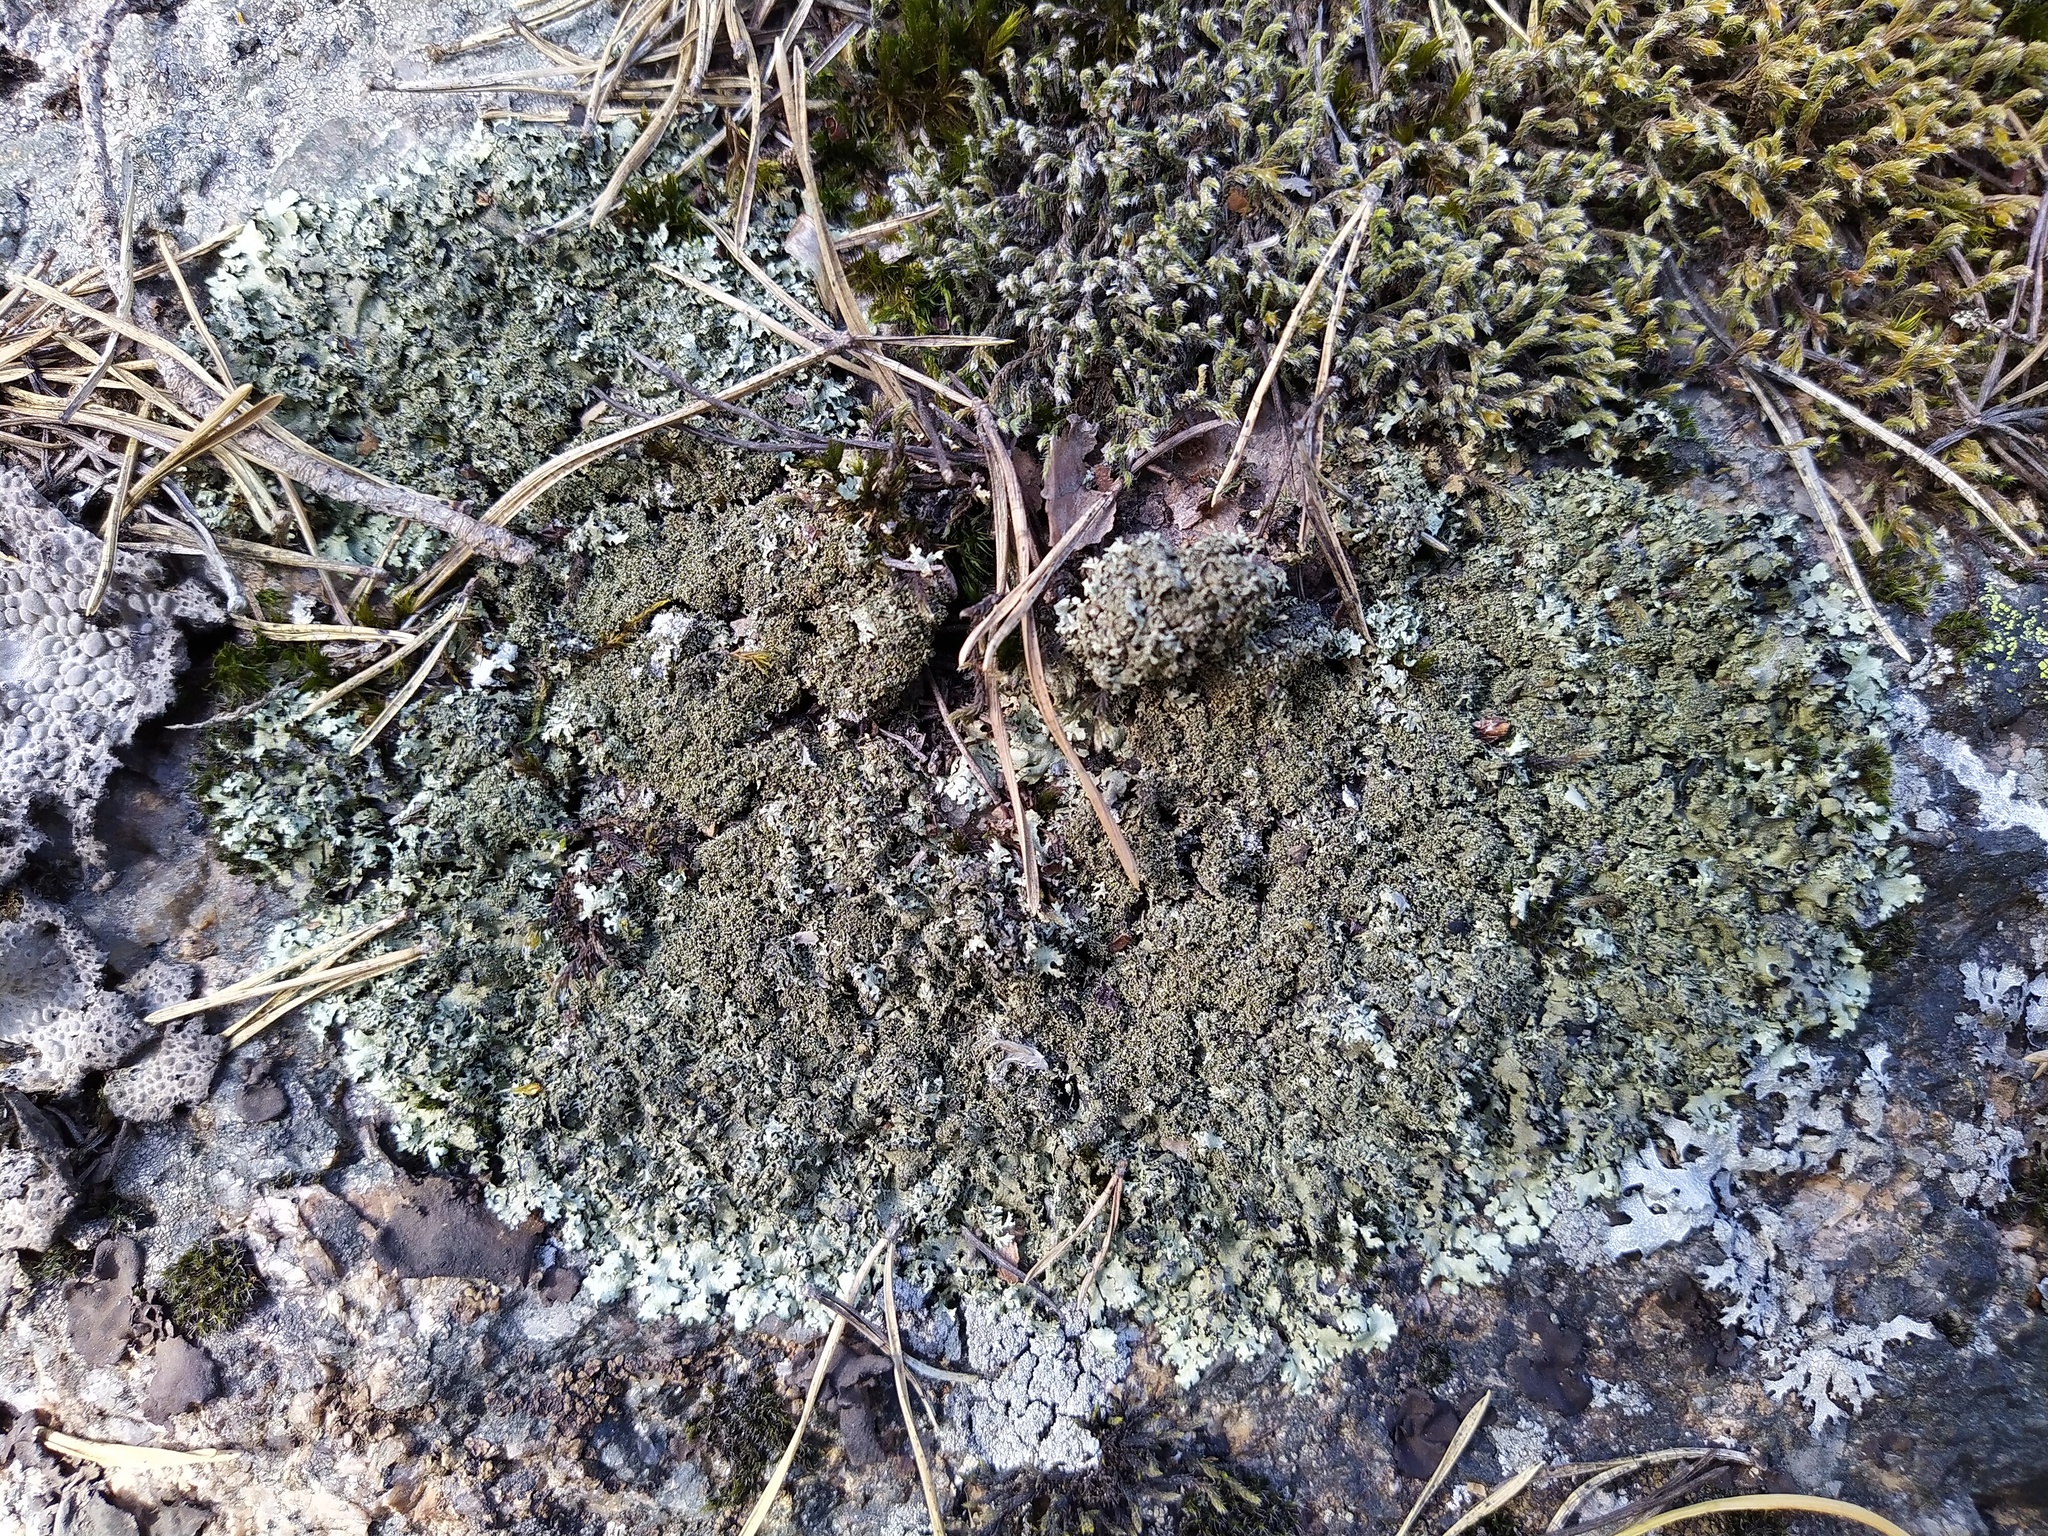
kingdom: Fungi
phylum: Ascomycota
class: Lecanoromycetes
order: Lecanorales
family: Parmeliaceae
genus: Xanthoparmelia
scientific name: Xanthoparmelia conspersa
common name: Peppered rock shield
